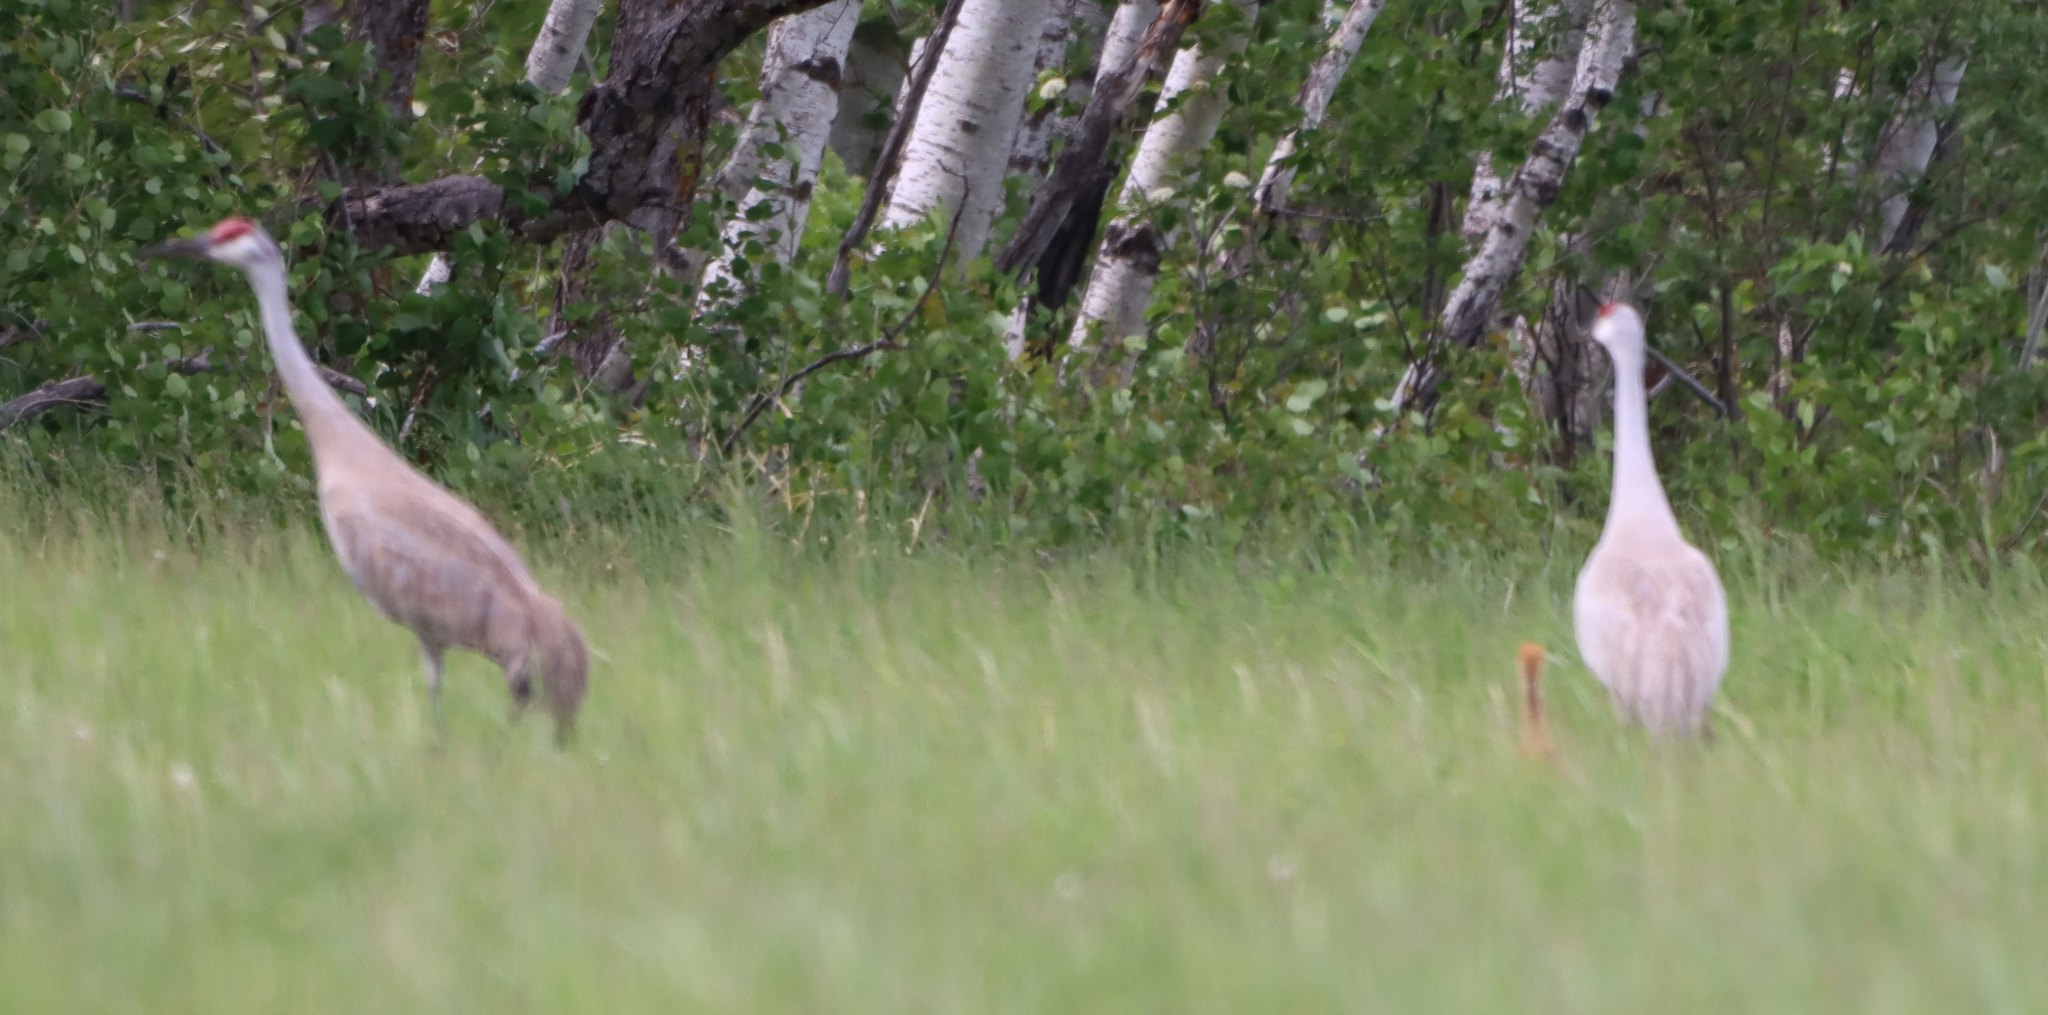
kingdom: Animalia
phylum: Chordata
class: Aves
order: Gruiformes
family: Gruidae
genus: Grus
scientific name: Grus canadensis
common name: Sandhill crane
